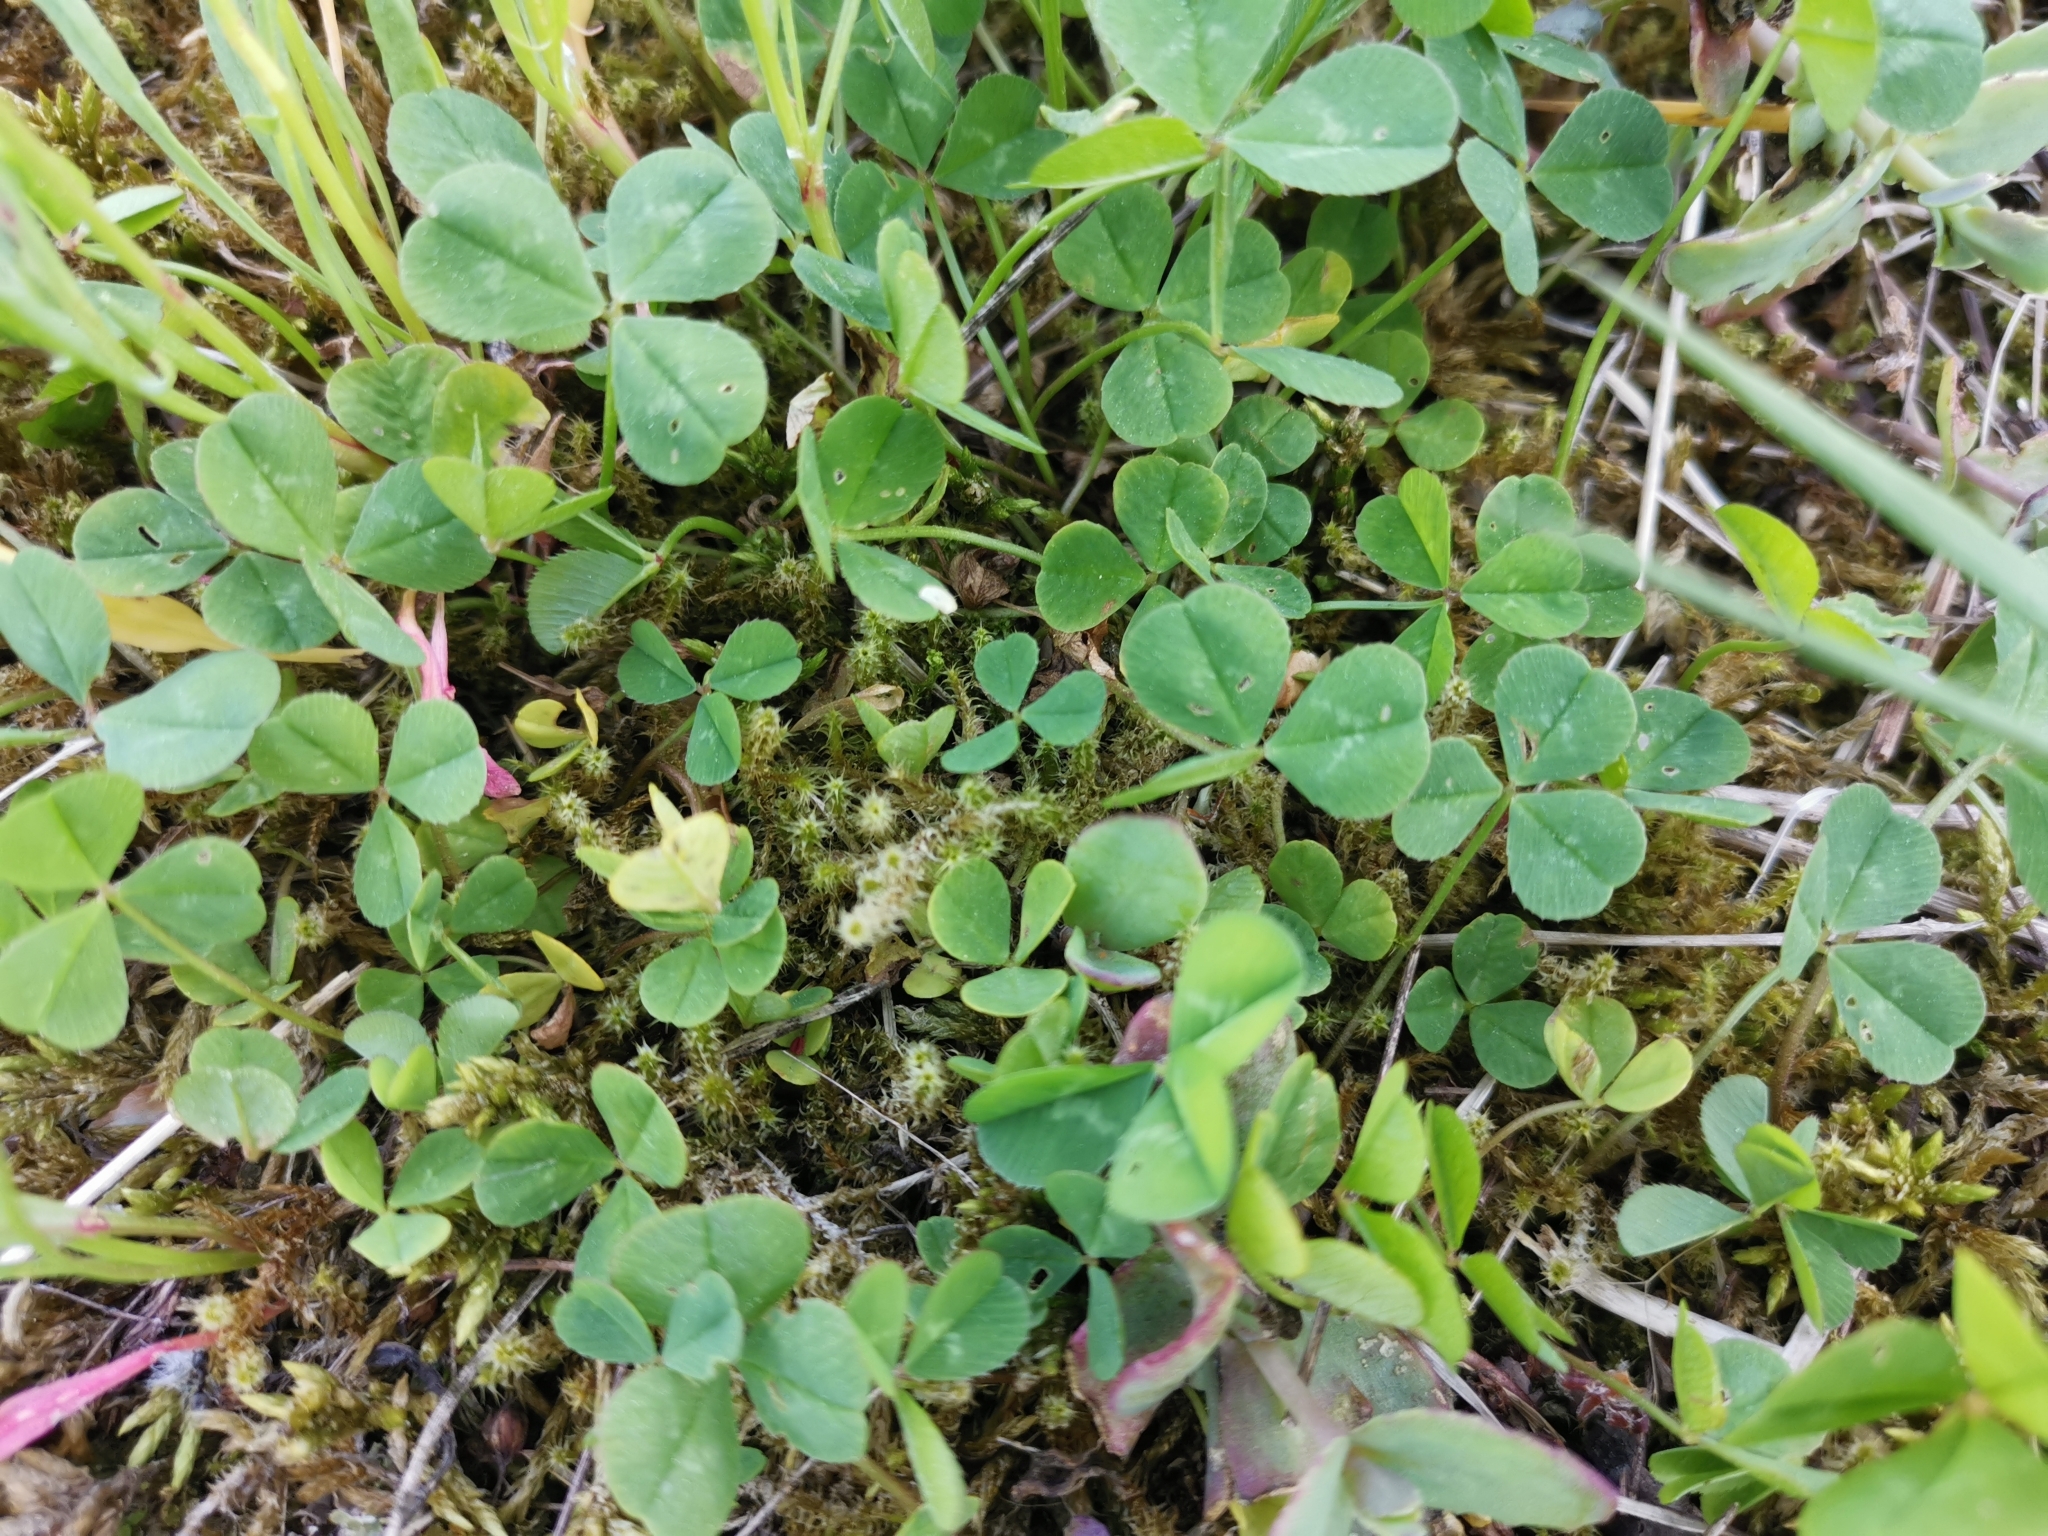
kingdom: Plantae
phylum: Tracheophyta
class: Magnoliopsida
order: Fabales
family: Fabaceae
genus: Trifolium
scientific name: Trifolium repens
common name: White clover
